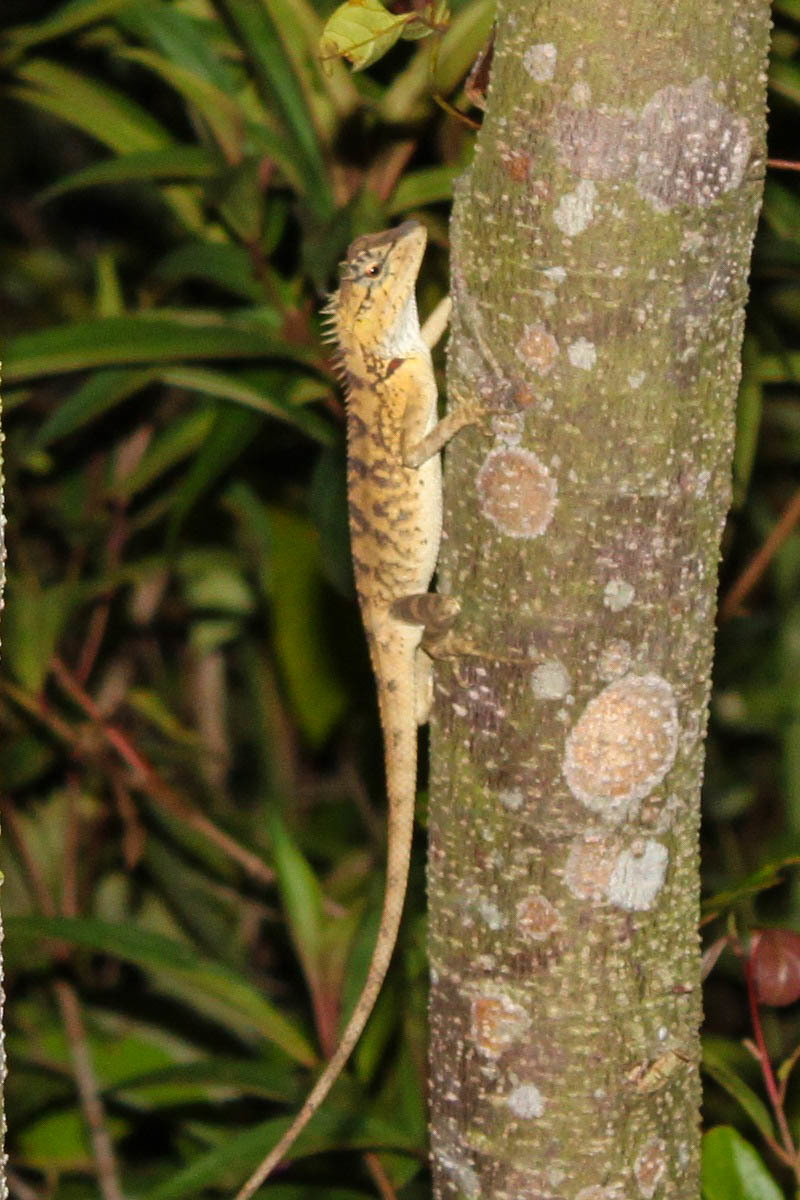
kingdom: Animalia
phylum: Chordata
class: Squamata
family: Agamidae
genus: Calotes
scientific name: Calotes emma
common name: Thailand bloodsucker
